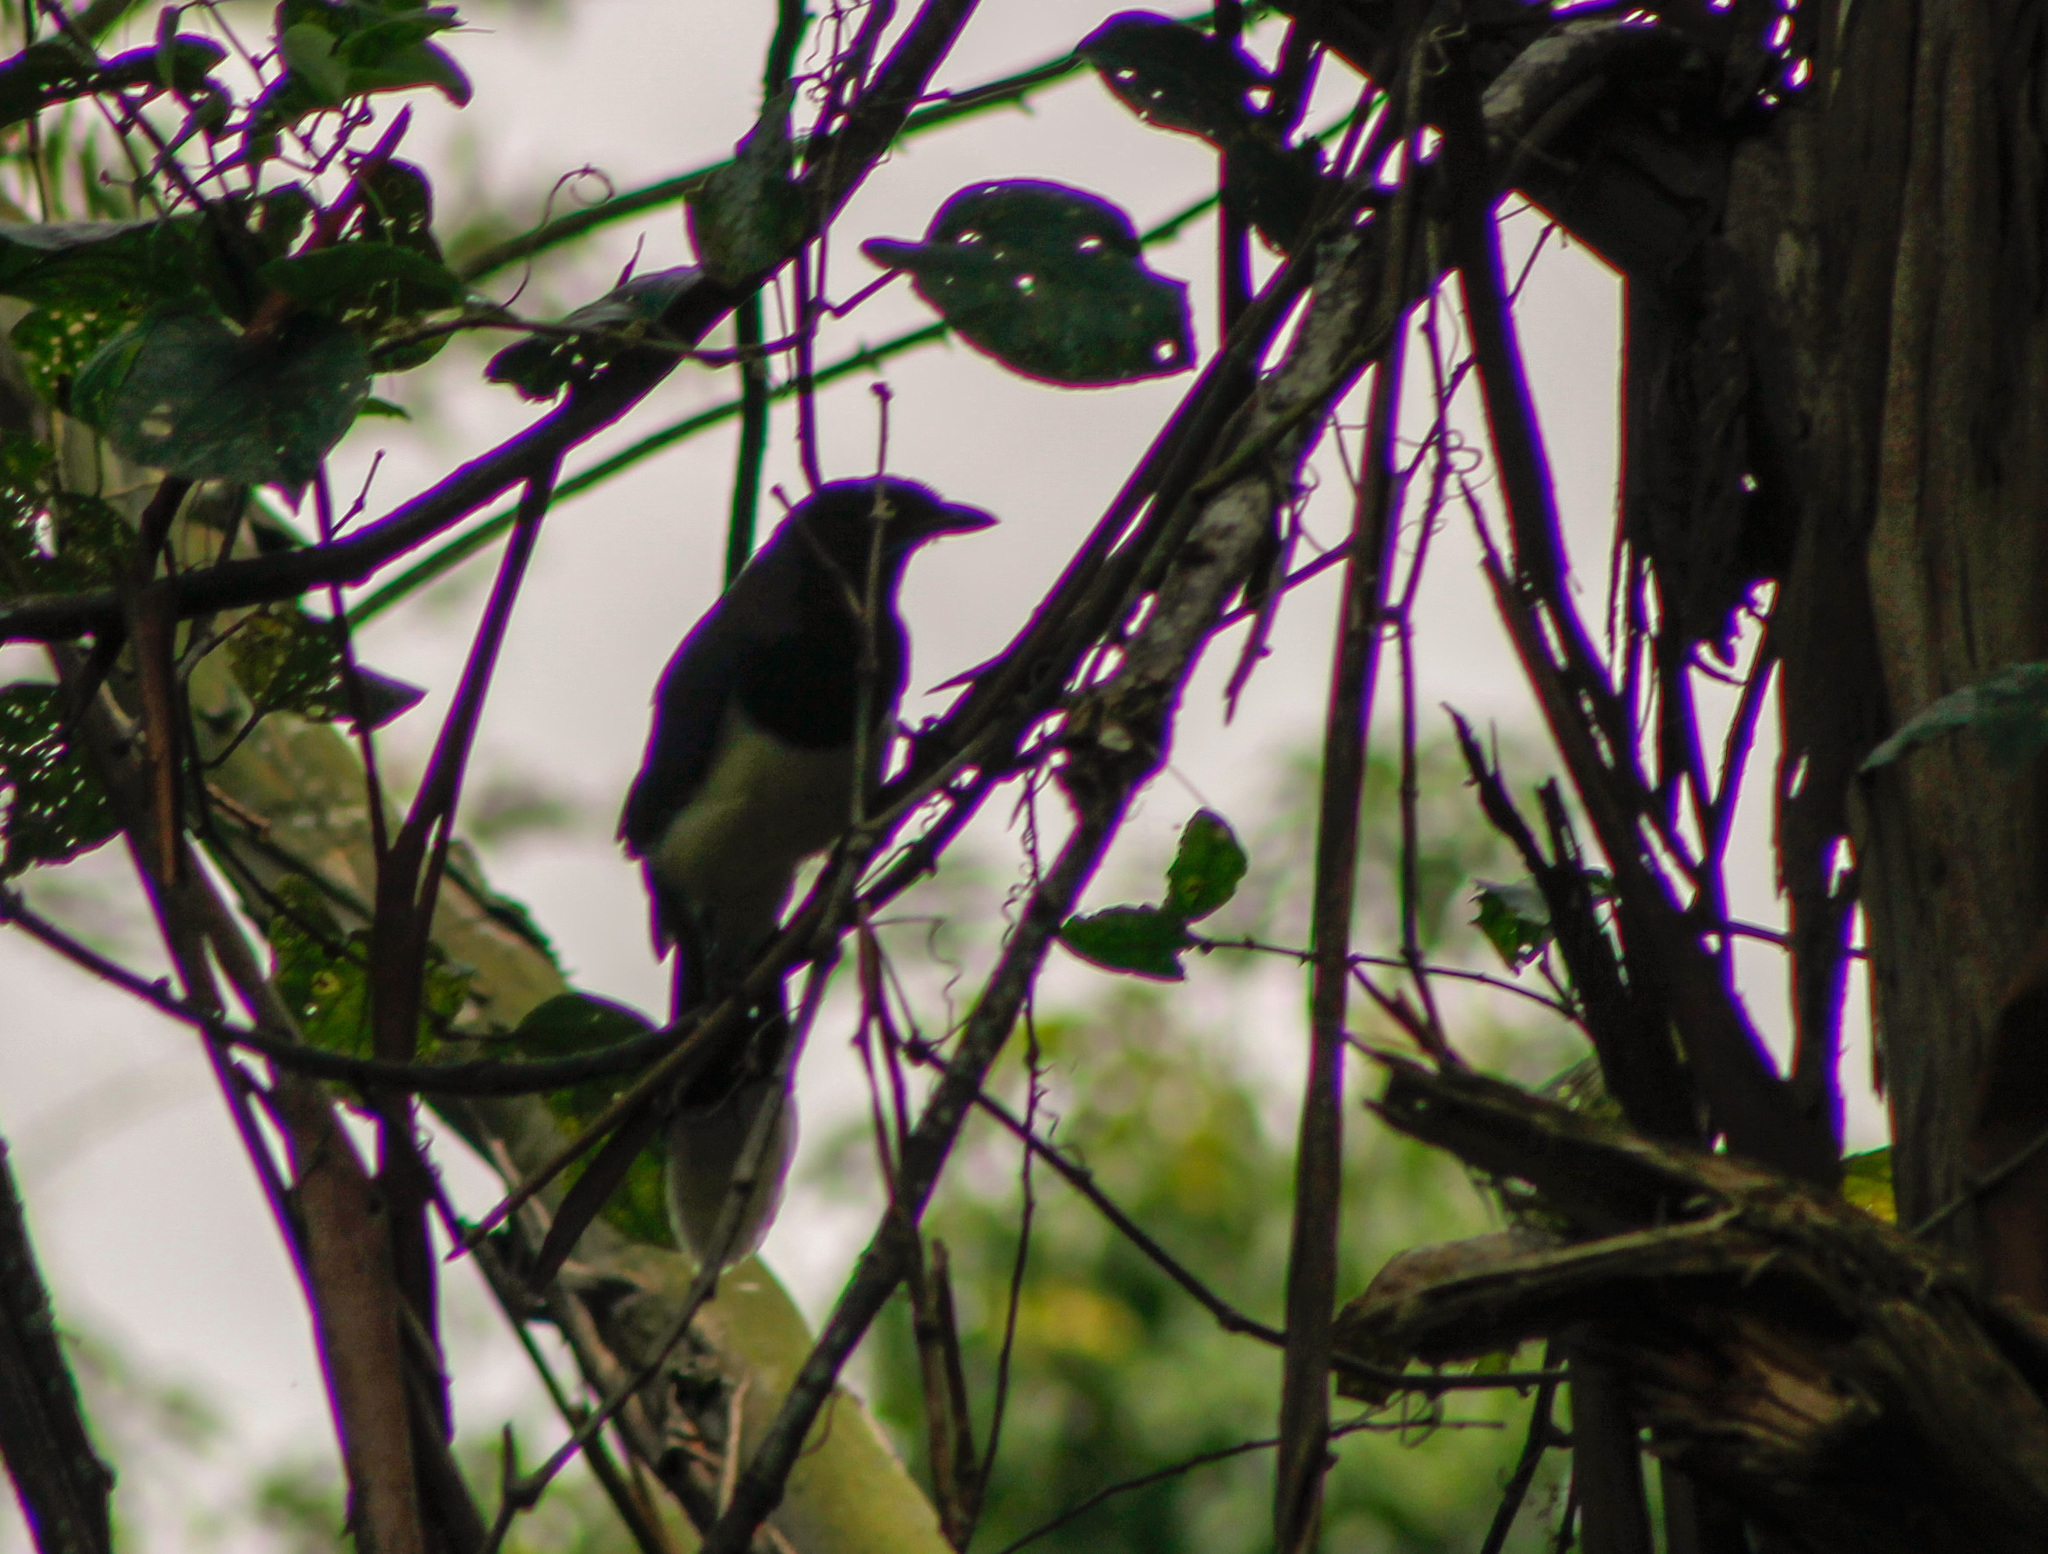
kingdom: Animalia
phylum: Chordata
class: Aves
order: Passeriformes
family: Corvidae
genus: Cyanocorax
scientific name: Cyanocorax affinis
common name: Black-chested jay
